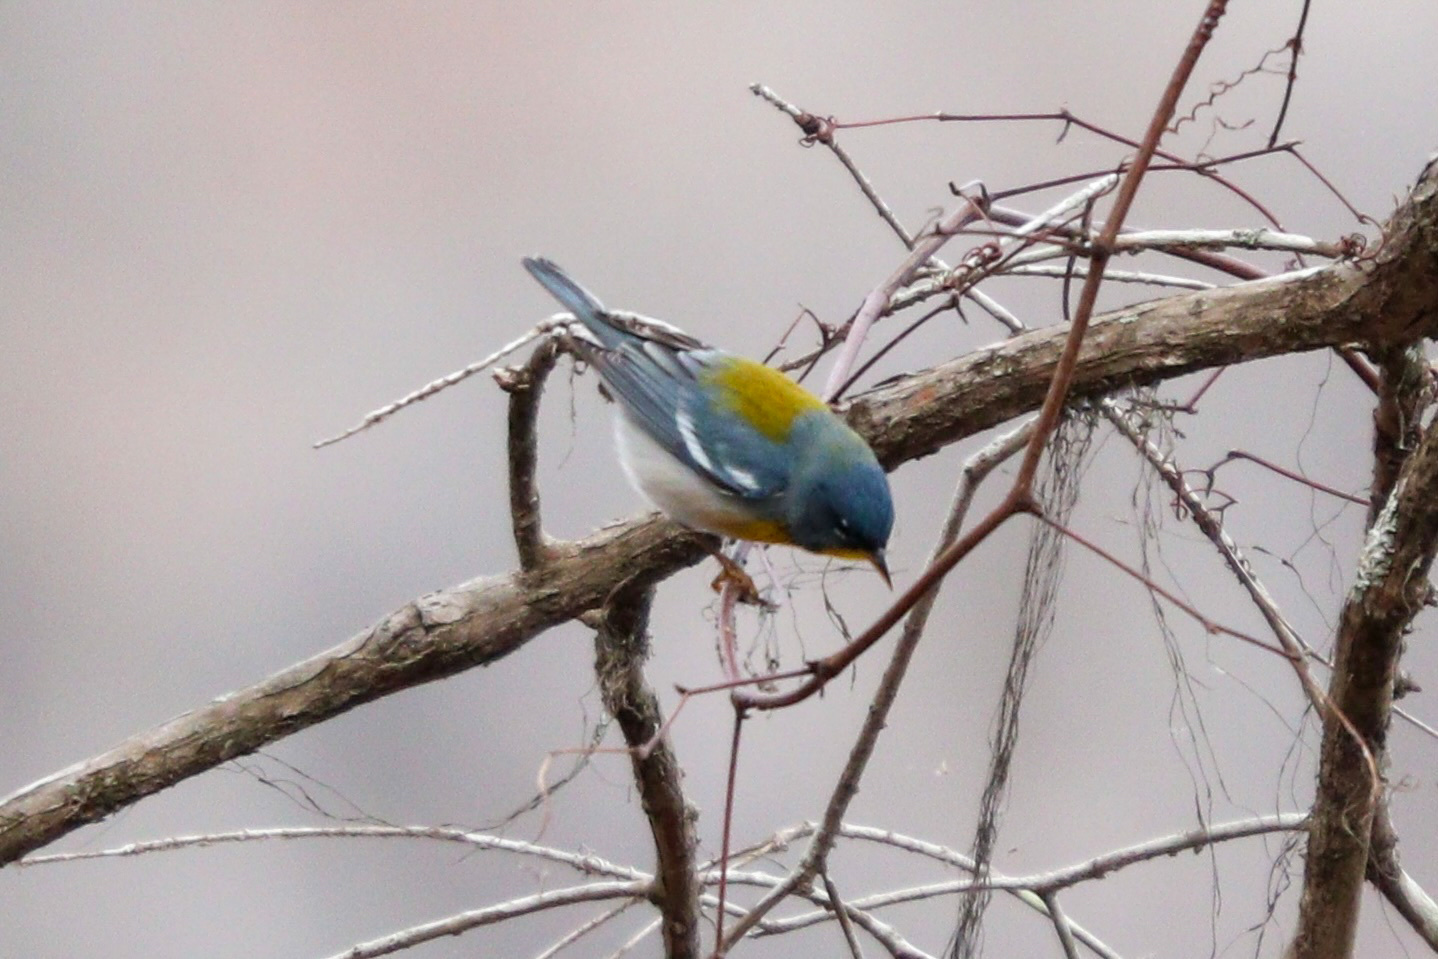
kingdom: Animalia
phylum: Chordata
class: Aves
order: Passeriformes
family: Parulidae
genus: Setophaga
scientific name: Setophaga americana
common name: Northern parula
